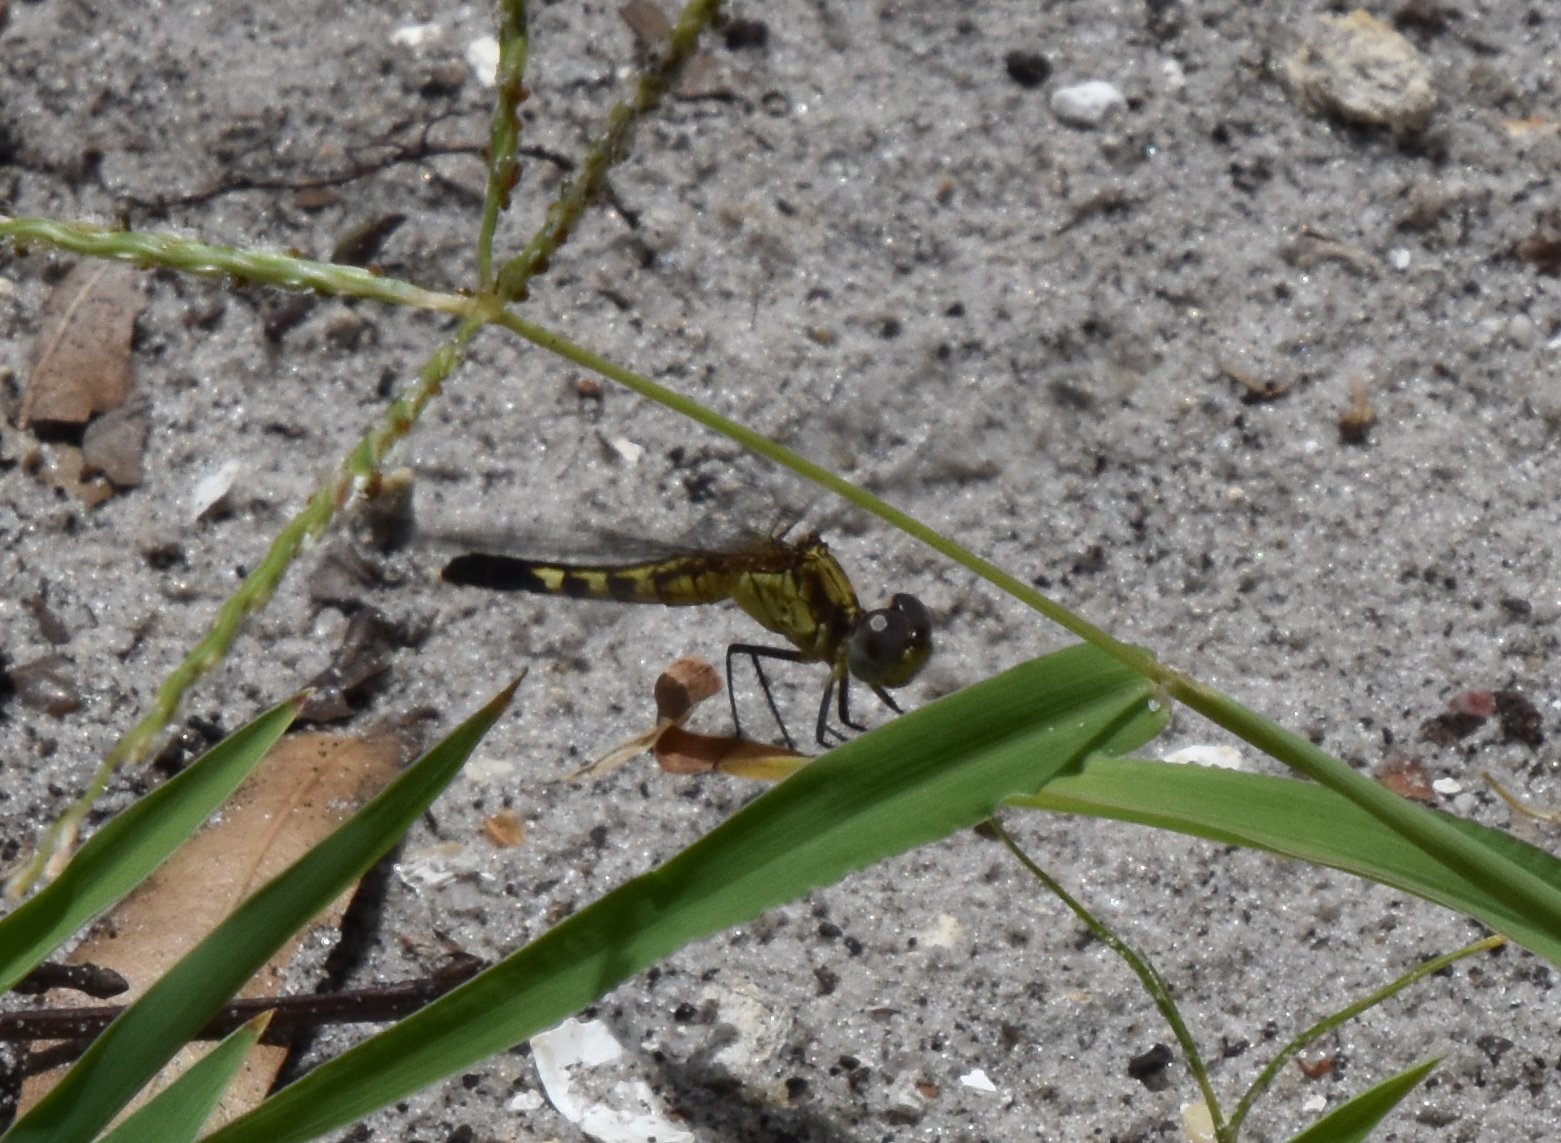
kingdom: Animalia
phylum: Arthropoda
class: Insecta
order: Odonata
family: Libellulidae
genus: Erythrodiplax
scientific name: Erythrodiplax minuscula
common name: Little blue dragonlet
